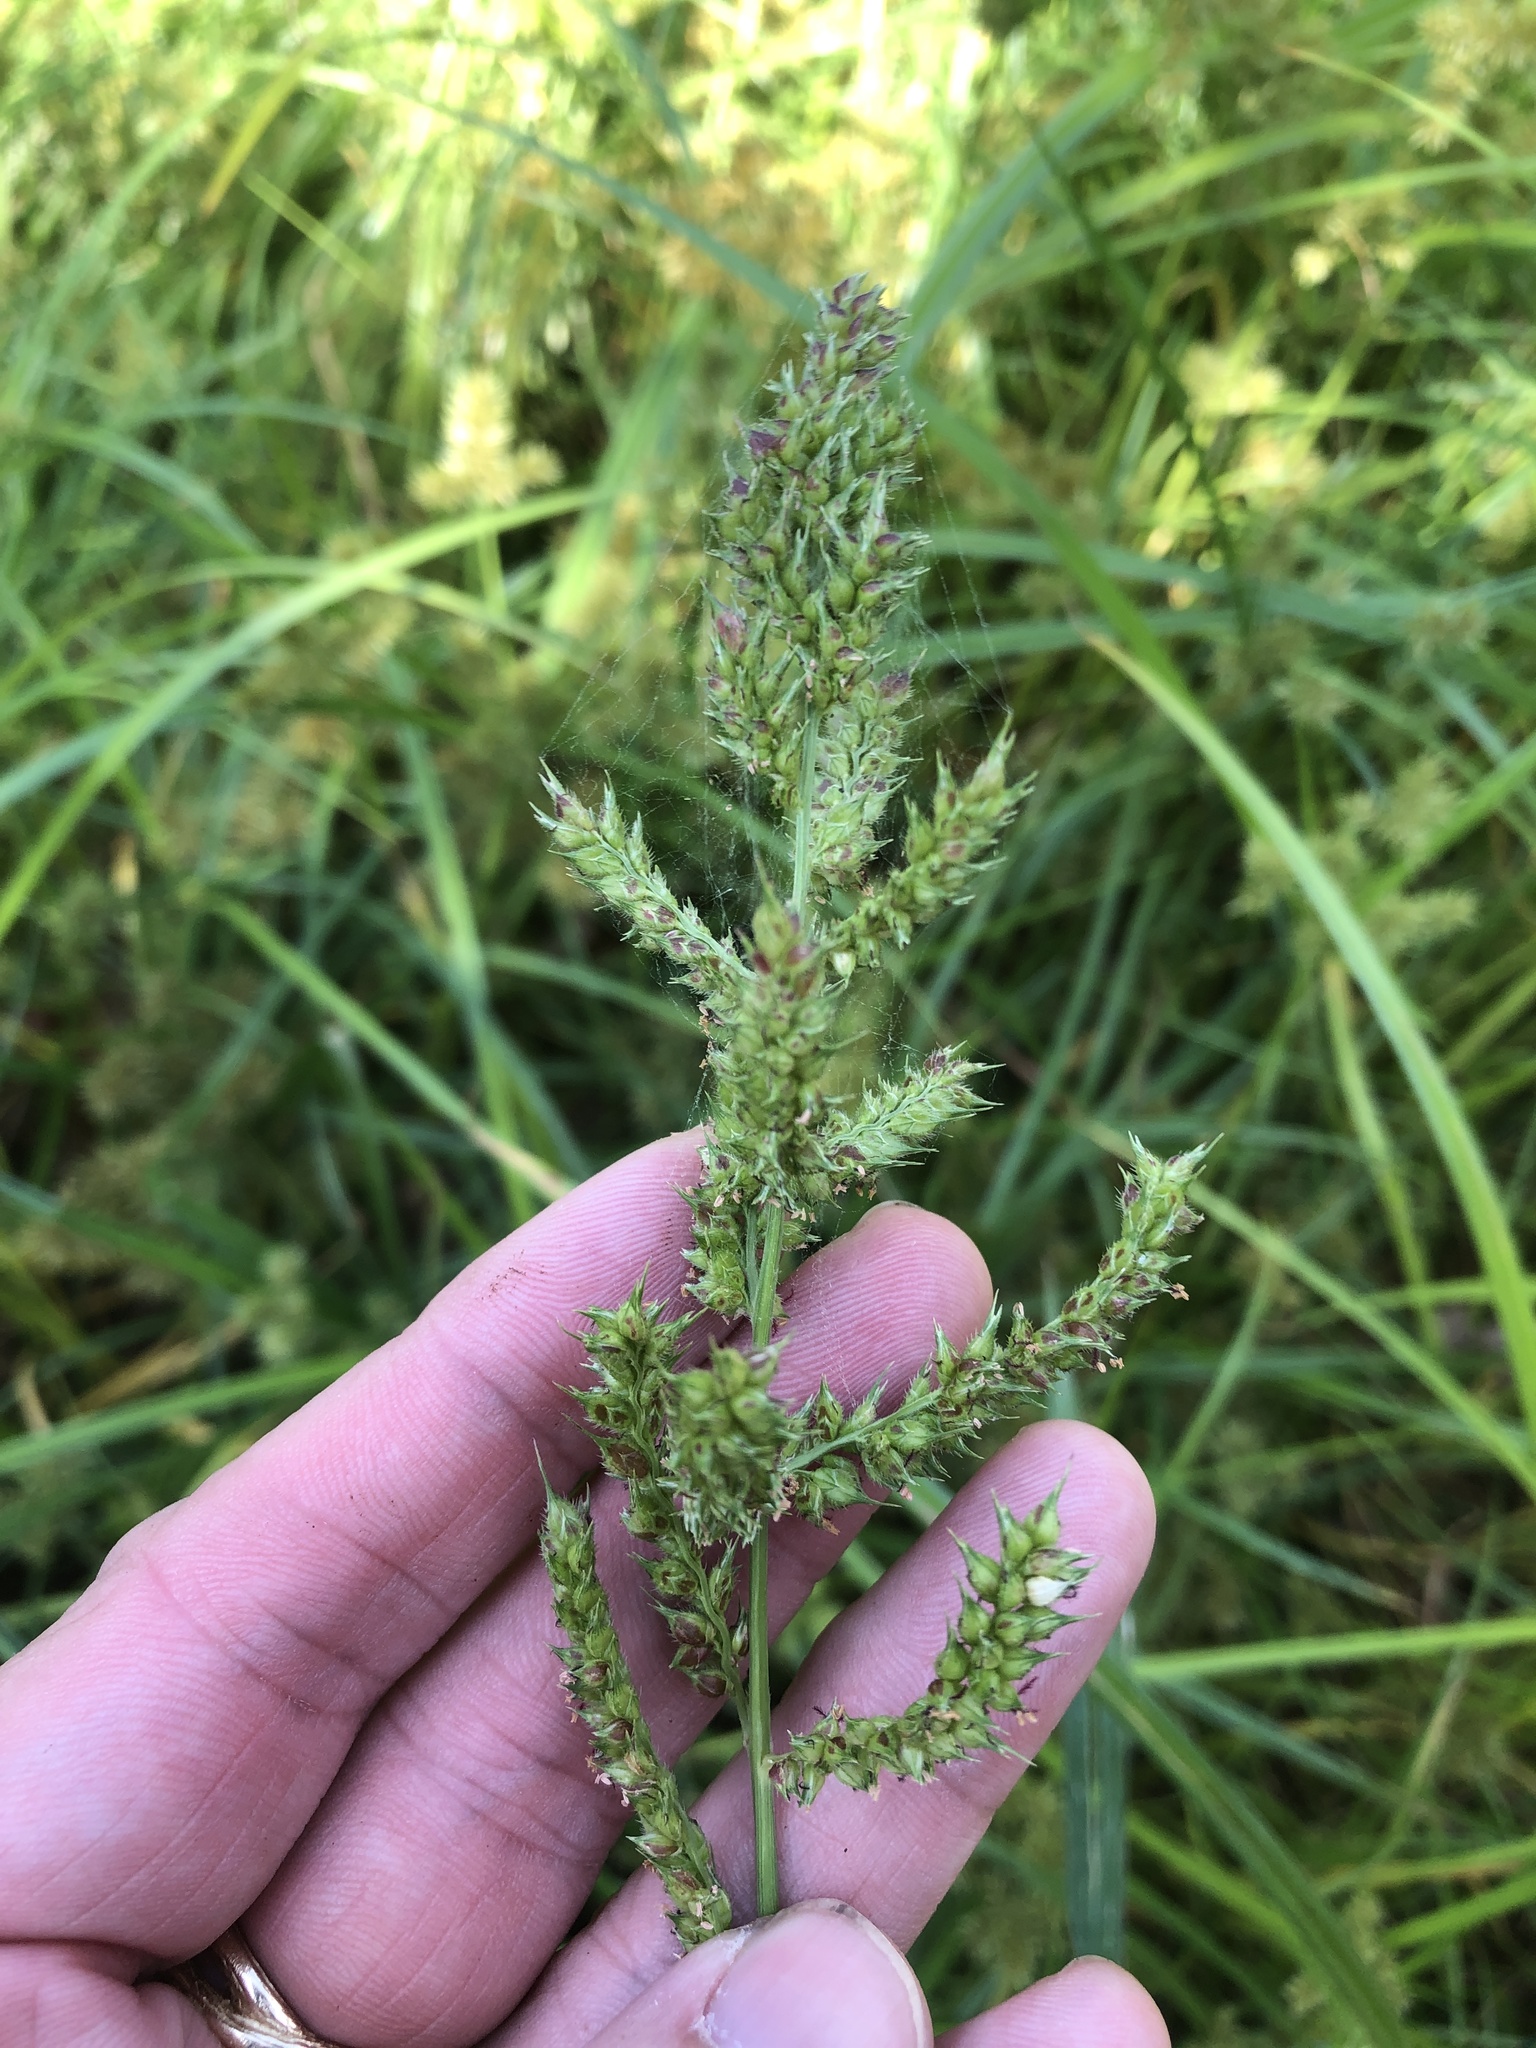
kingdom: Plantae
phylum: Tracheophyta
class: Liliopsida
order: Poales
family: Poaceae
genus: Echinochloa
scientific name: Echinochloa crus-galli
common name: Cockspur
